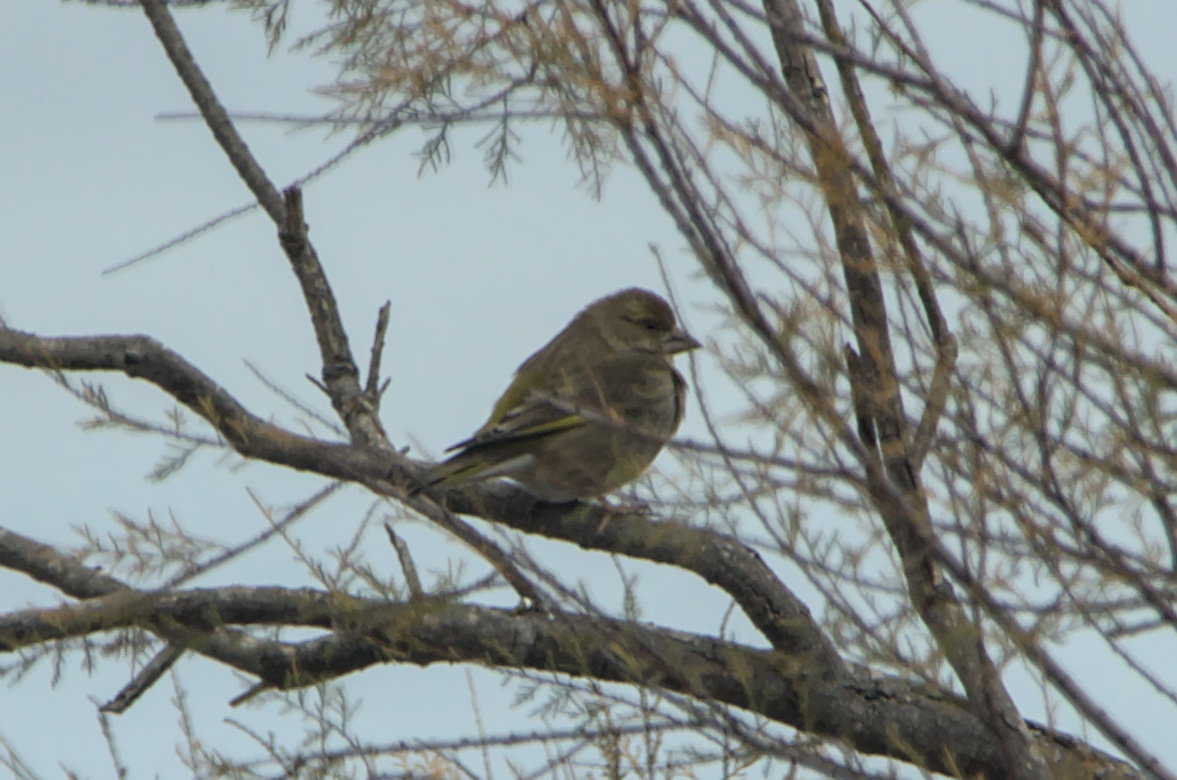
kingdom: Plantae
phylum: Tracheophyta
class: Liliopsida
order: Poales
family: Poaceae
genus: Chloris
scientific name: Chloris chloris
